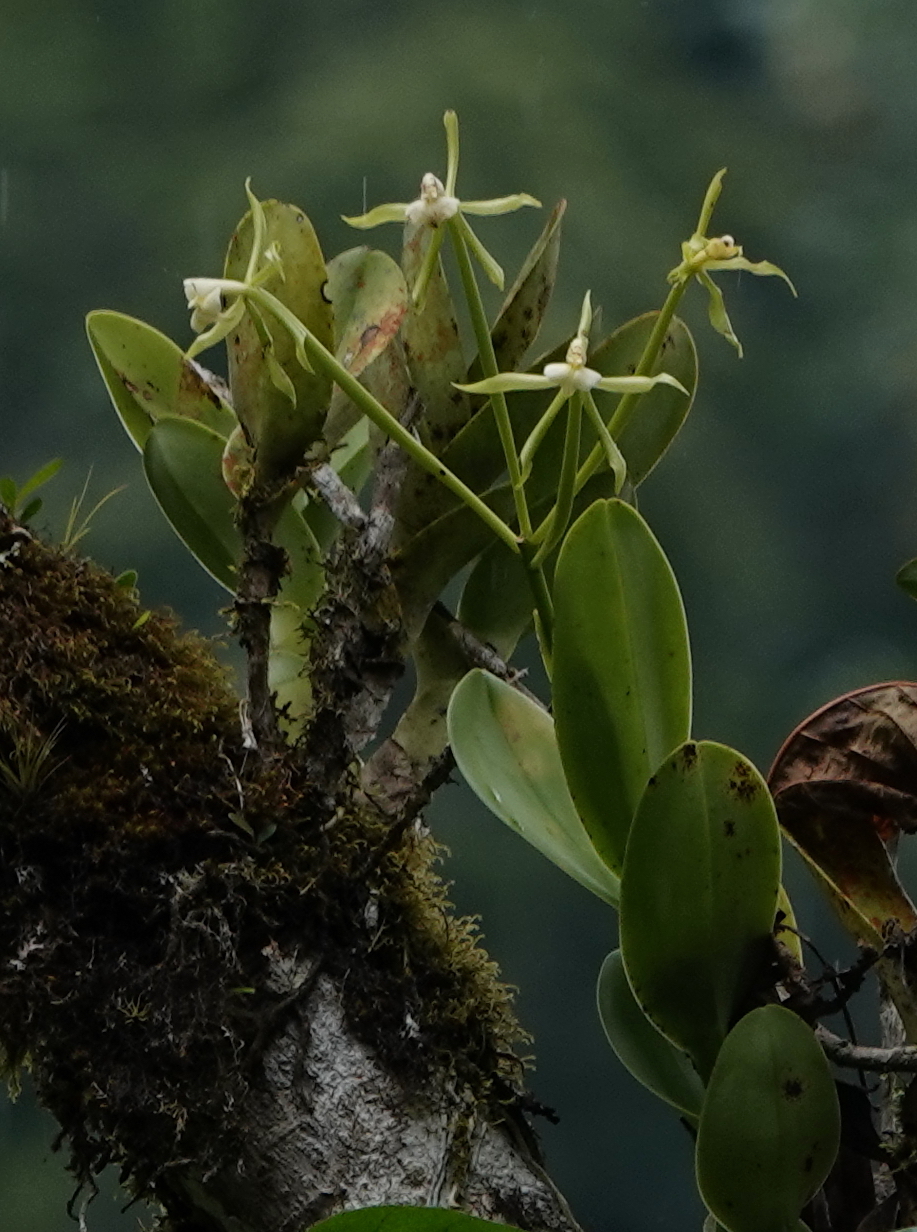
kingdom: Plantae
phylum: Tracheophyta
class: Liliopsida
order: Asparagales
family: Orchidaceae
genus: Epidendrum
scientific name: Epidendrum lacustre
